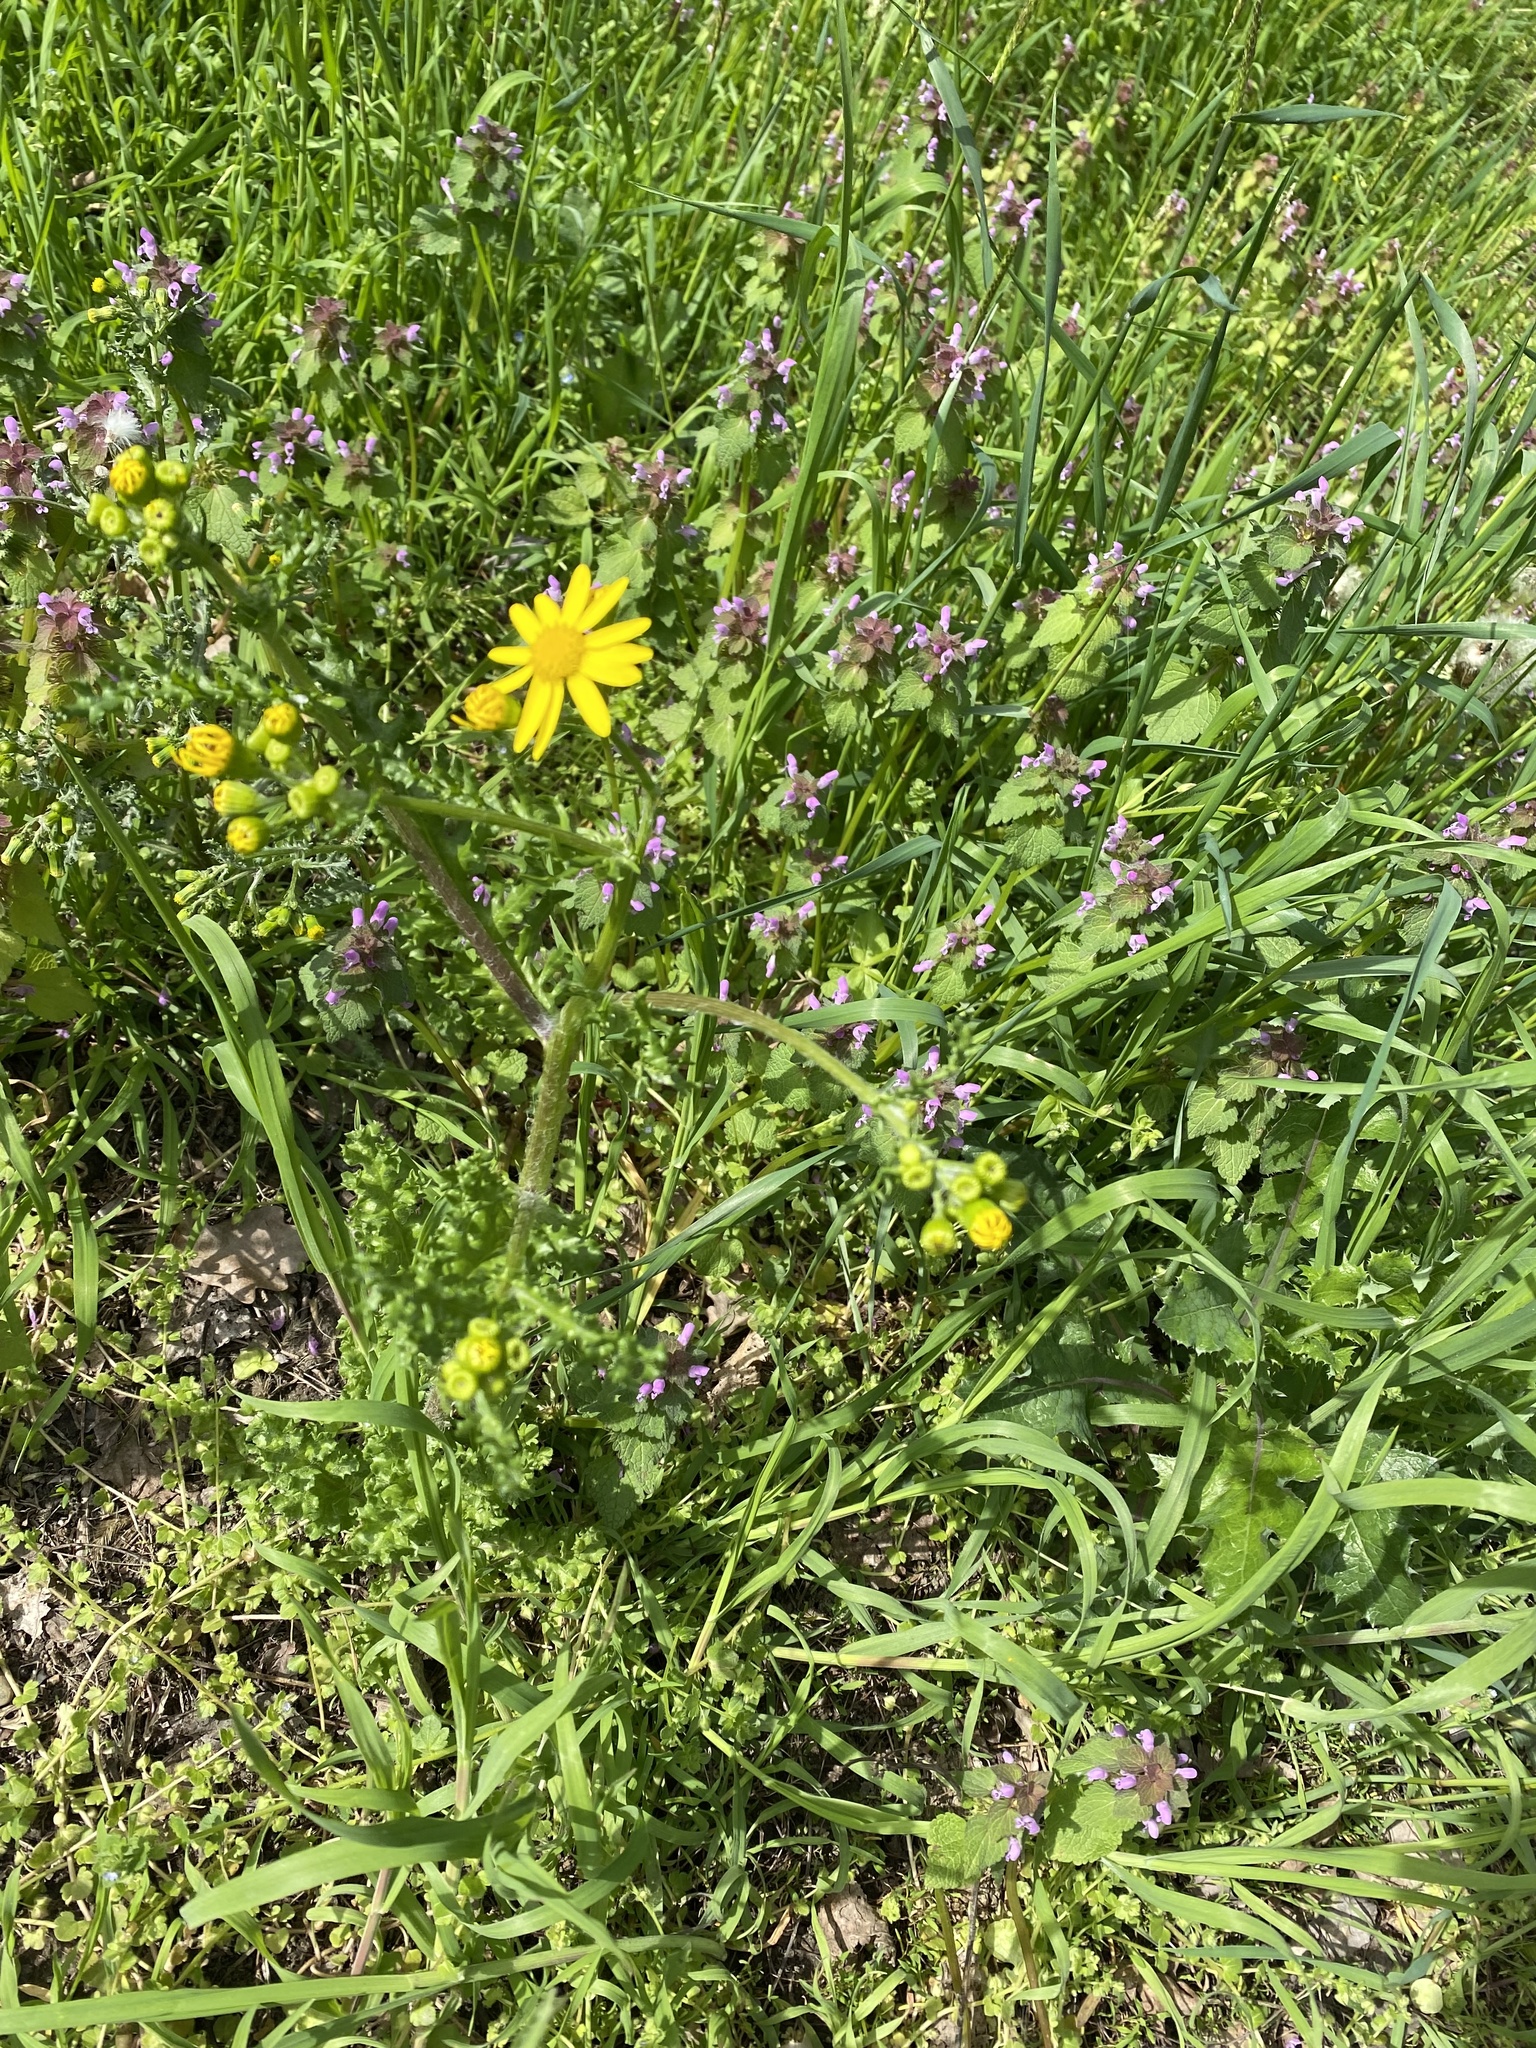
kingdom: Plantae
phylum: Tracheophyta
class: Magnoliopsida
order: Asterales
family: Asteraceae
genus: Senecio
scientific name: Senecio vernalis
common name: Eastern groundsel
